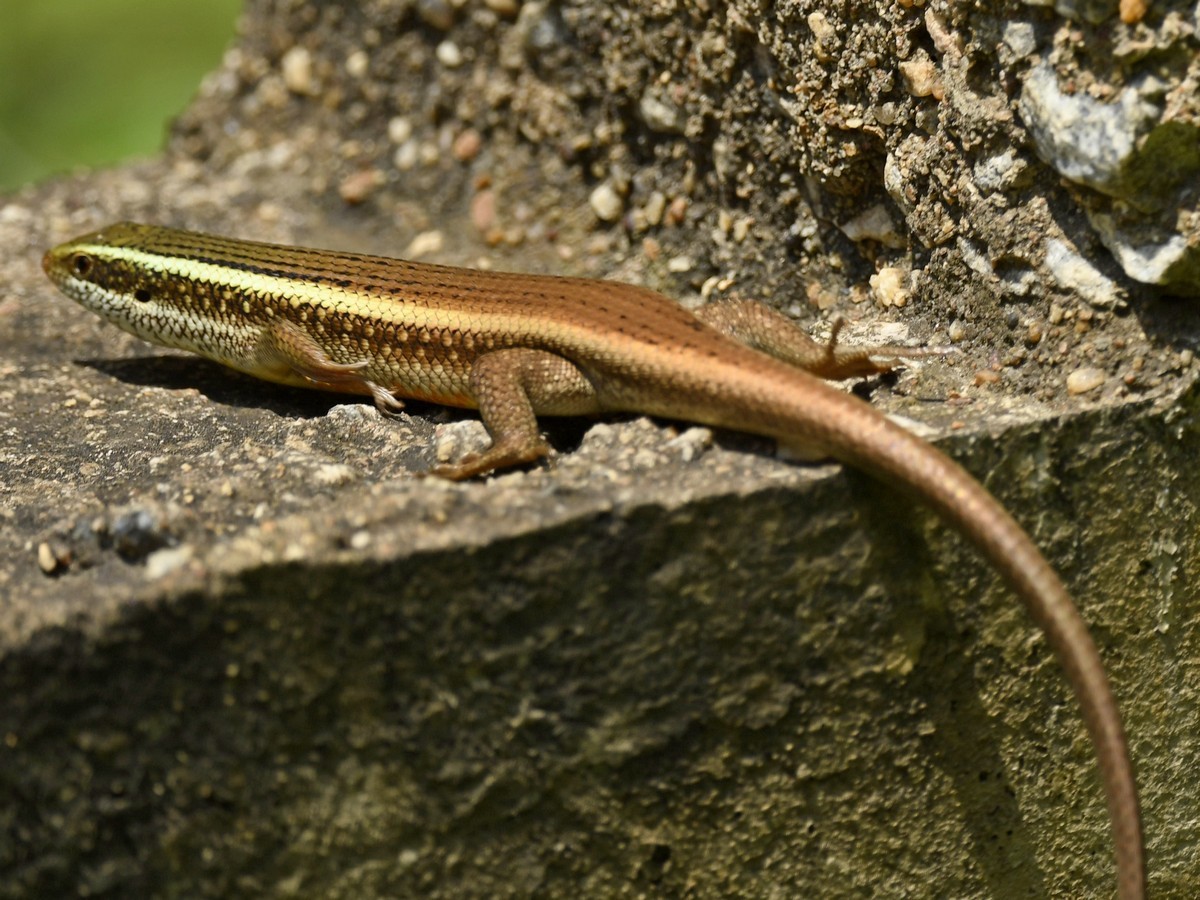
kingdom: Animalia
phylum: Chordata
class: Squamata
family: Scincidae
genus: Eutropis
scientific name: Eutropis carinata
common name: Keeled indian mabuya
